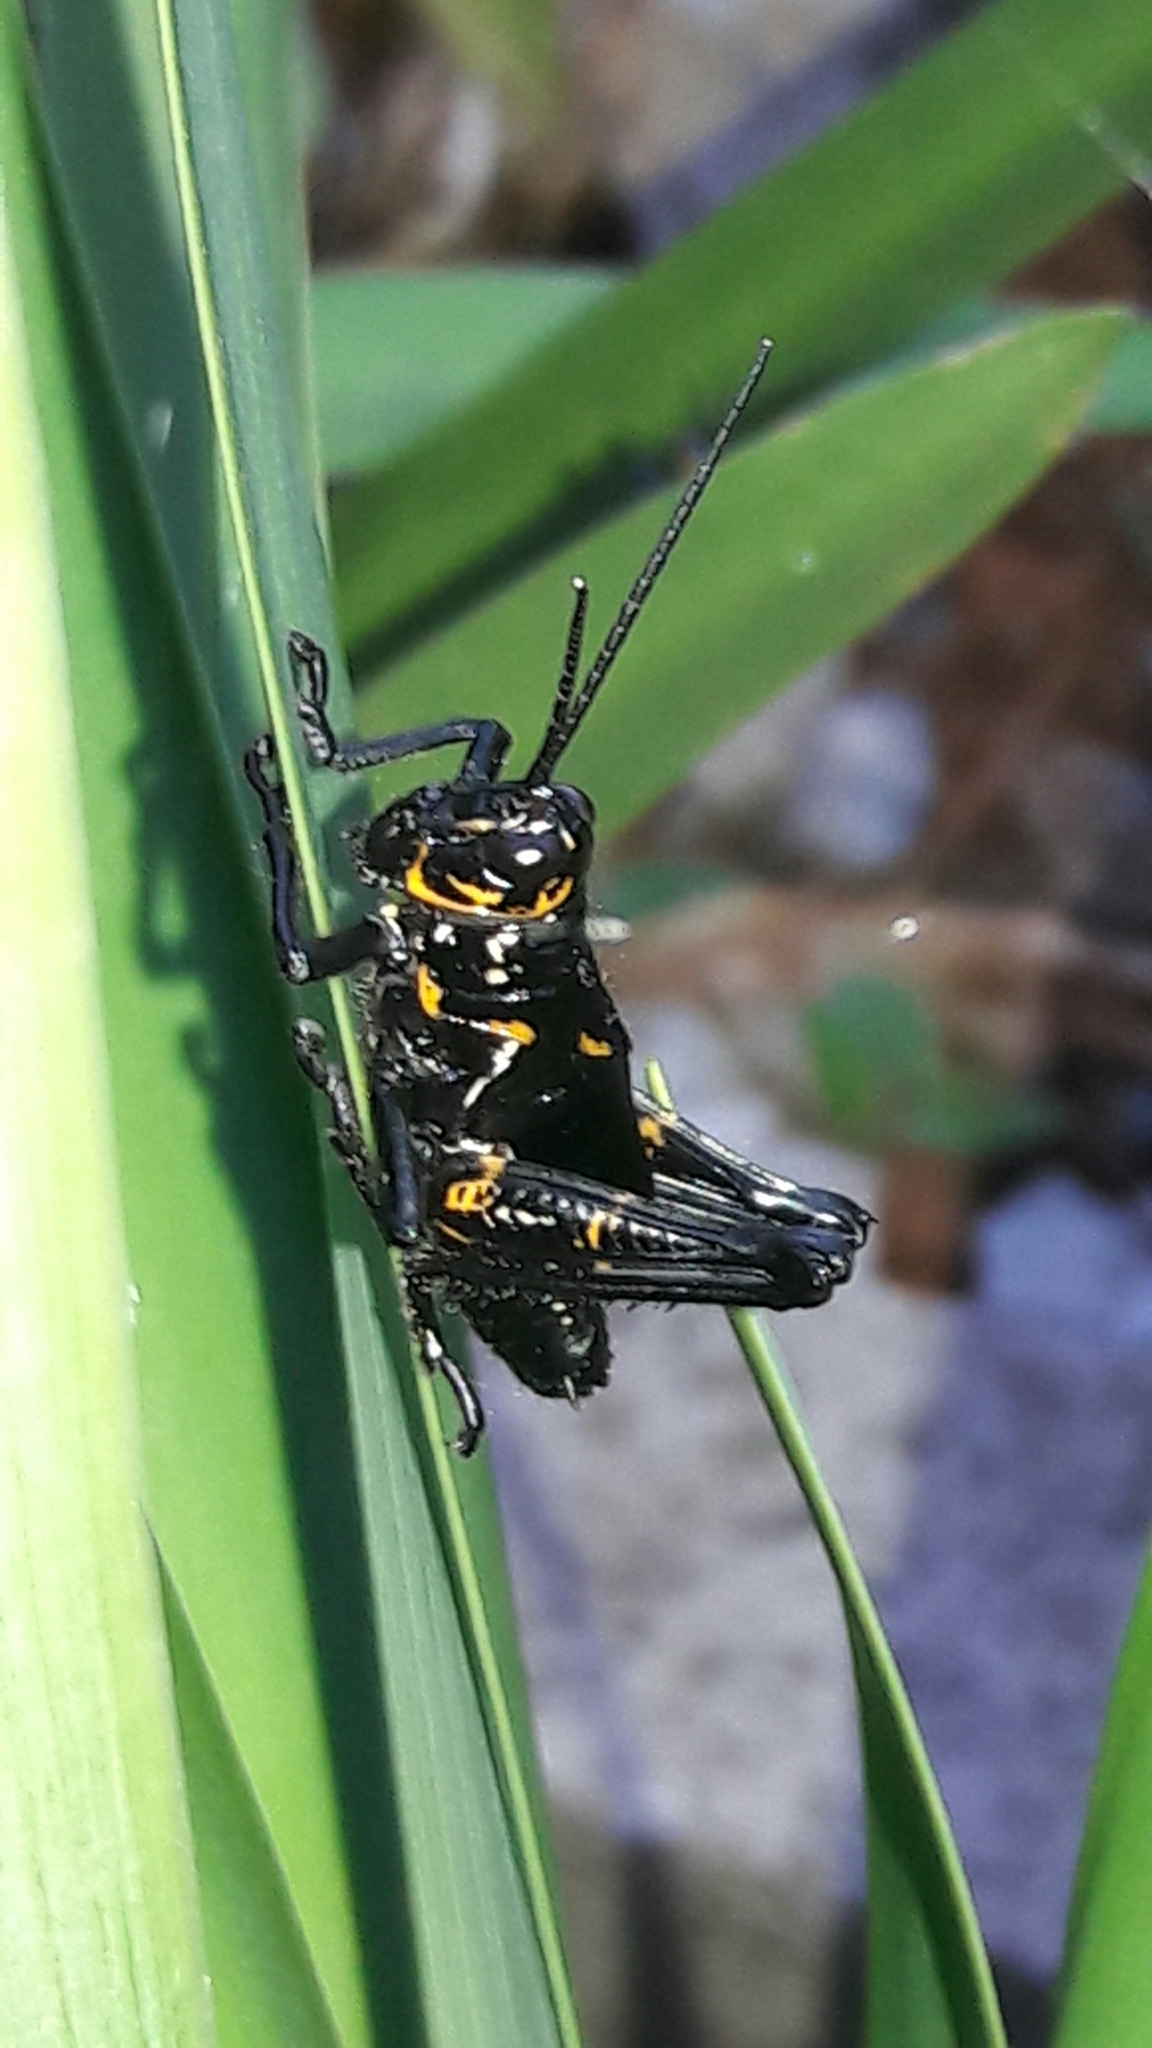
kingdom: Animalia
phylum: Arthropoda
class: Insecta
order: Orthoptera
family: Romaleidae
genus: Chromacris
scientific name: Chromacris speciosa
